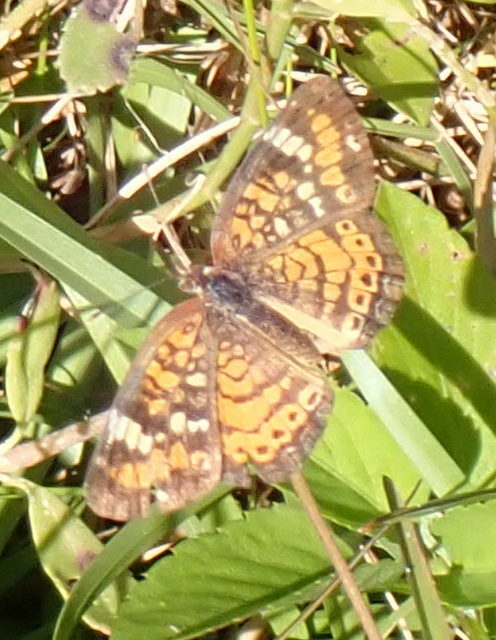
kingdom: Animalia
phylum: Arthropoda
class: Insecta
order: Lepidoptera
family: Nymphalidae
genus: Phyciodes
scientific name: Phyciodes phaon
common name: Phaon crescent
